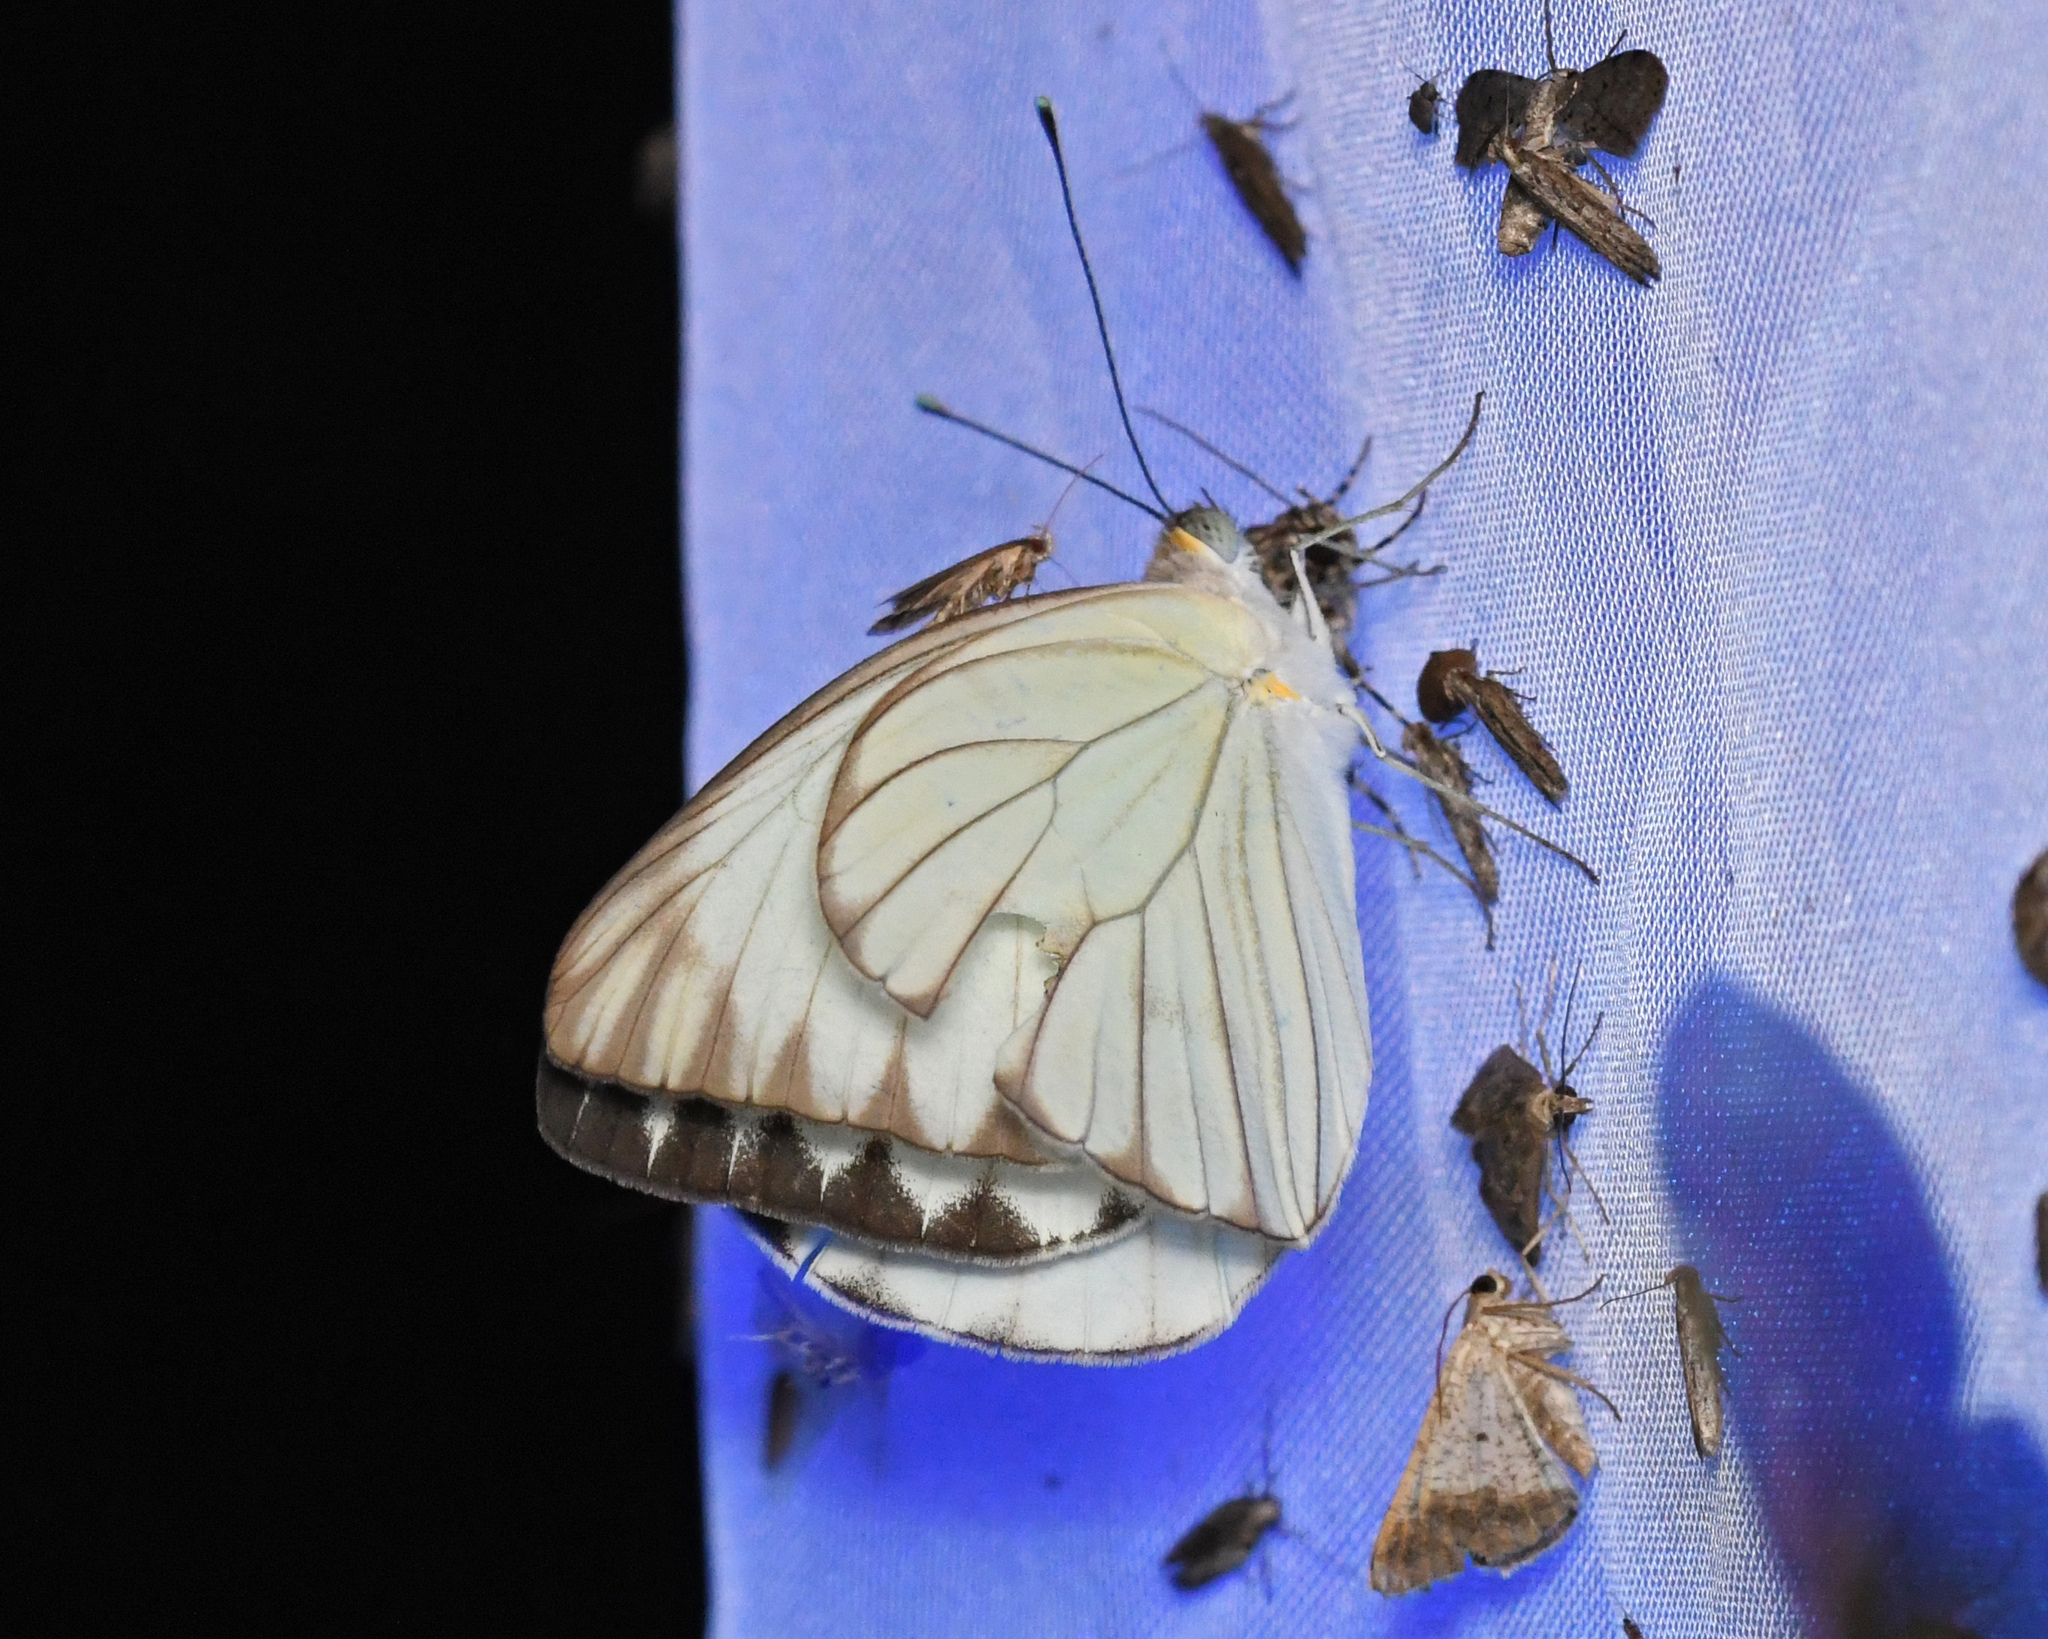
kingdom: Animalia
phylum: Arthropoda
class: Insecta
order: Lepidoptera
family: Pieridae
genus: Ascia
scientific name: Ascia monuste
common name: Great southern white
